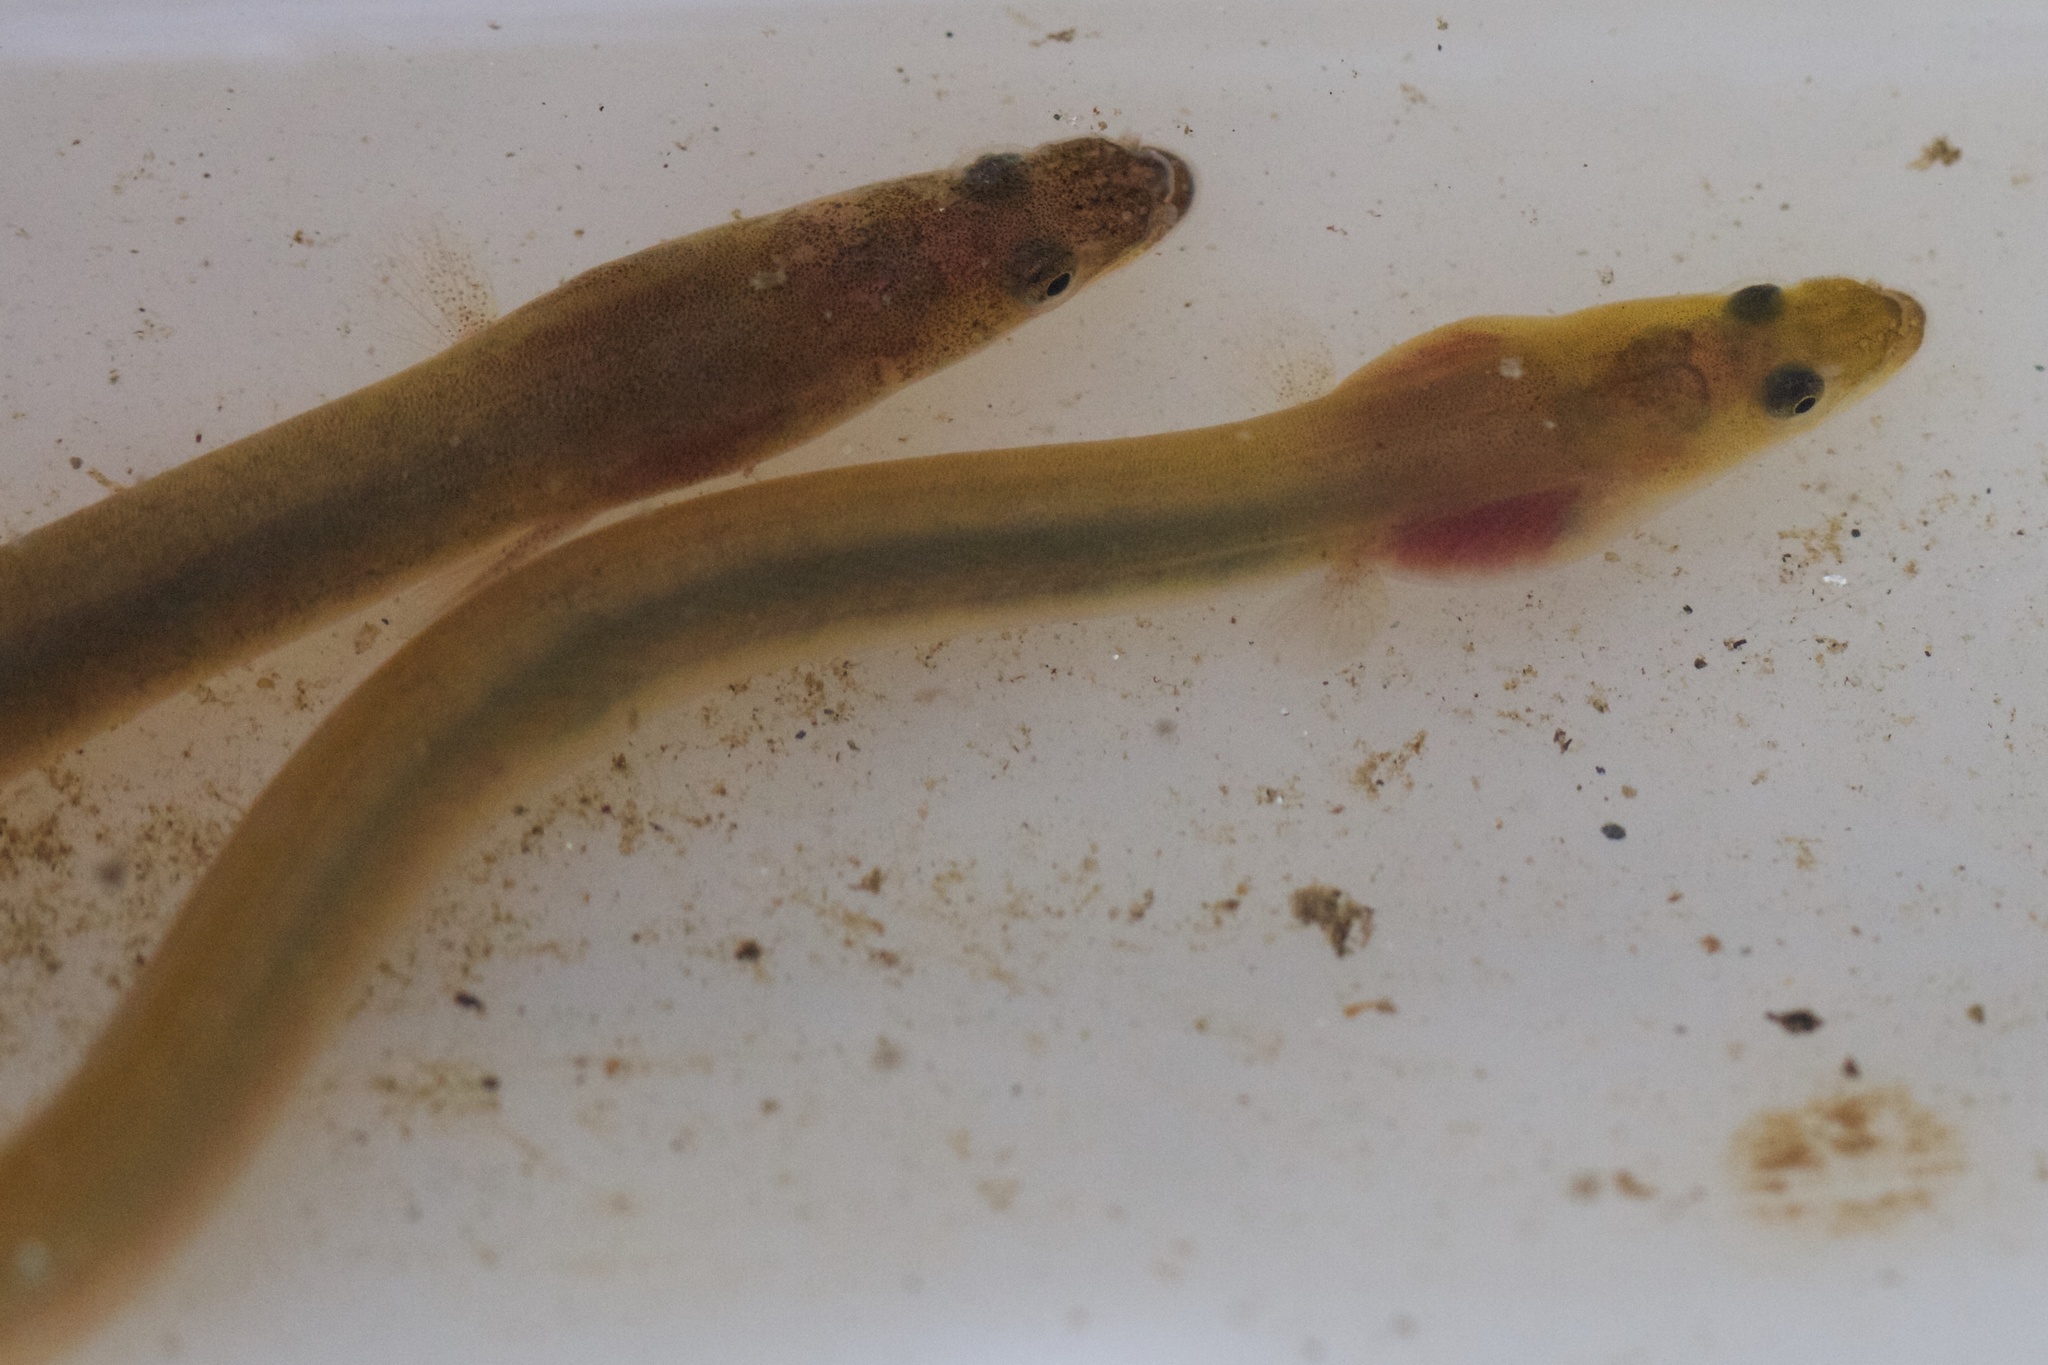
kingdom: Animalia
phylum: Chordata
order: Anguilliformes
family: Anguillidae
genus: Anguilla
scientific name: Anguilla rostrata
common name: American eel
